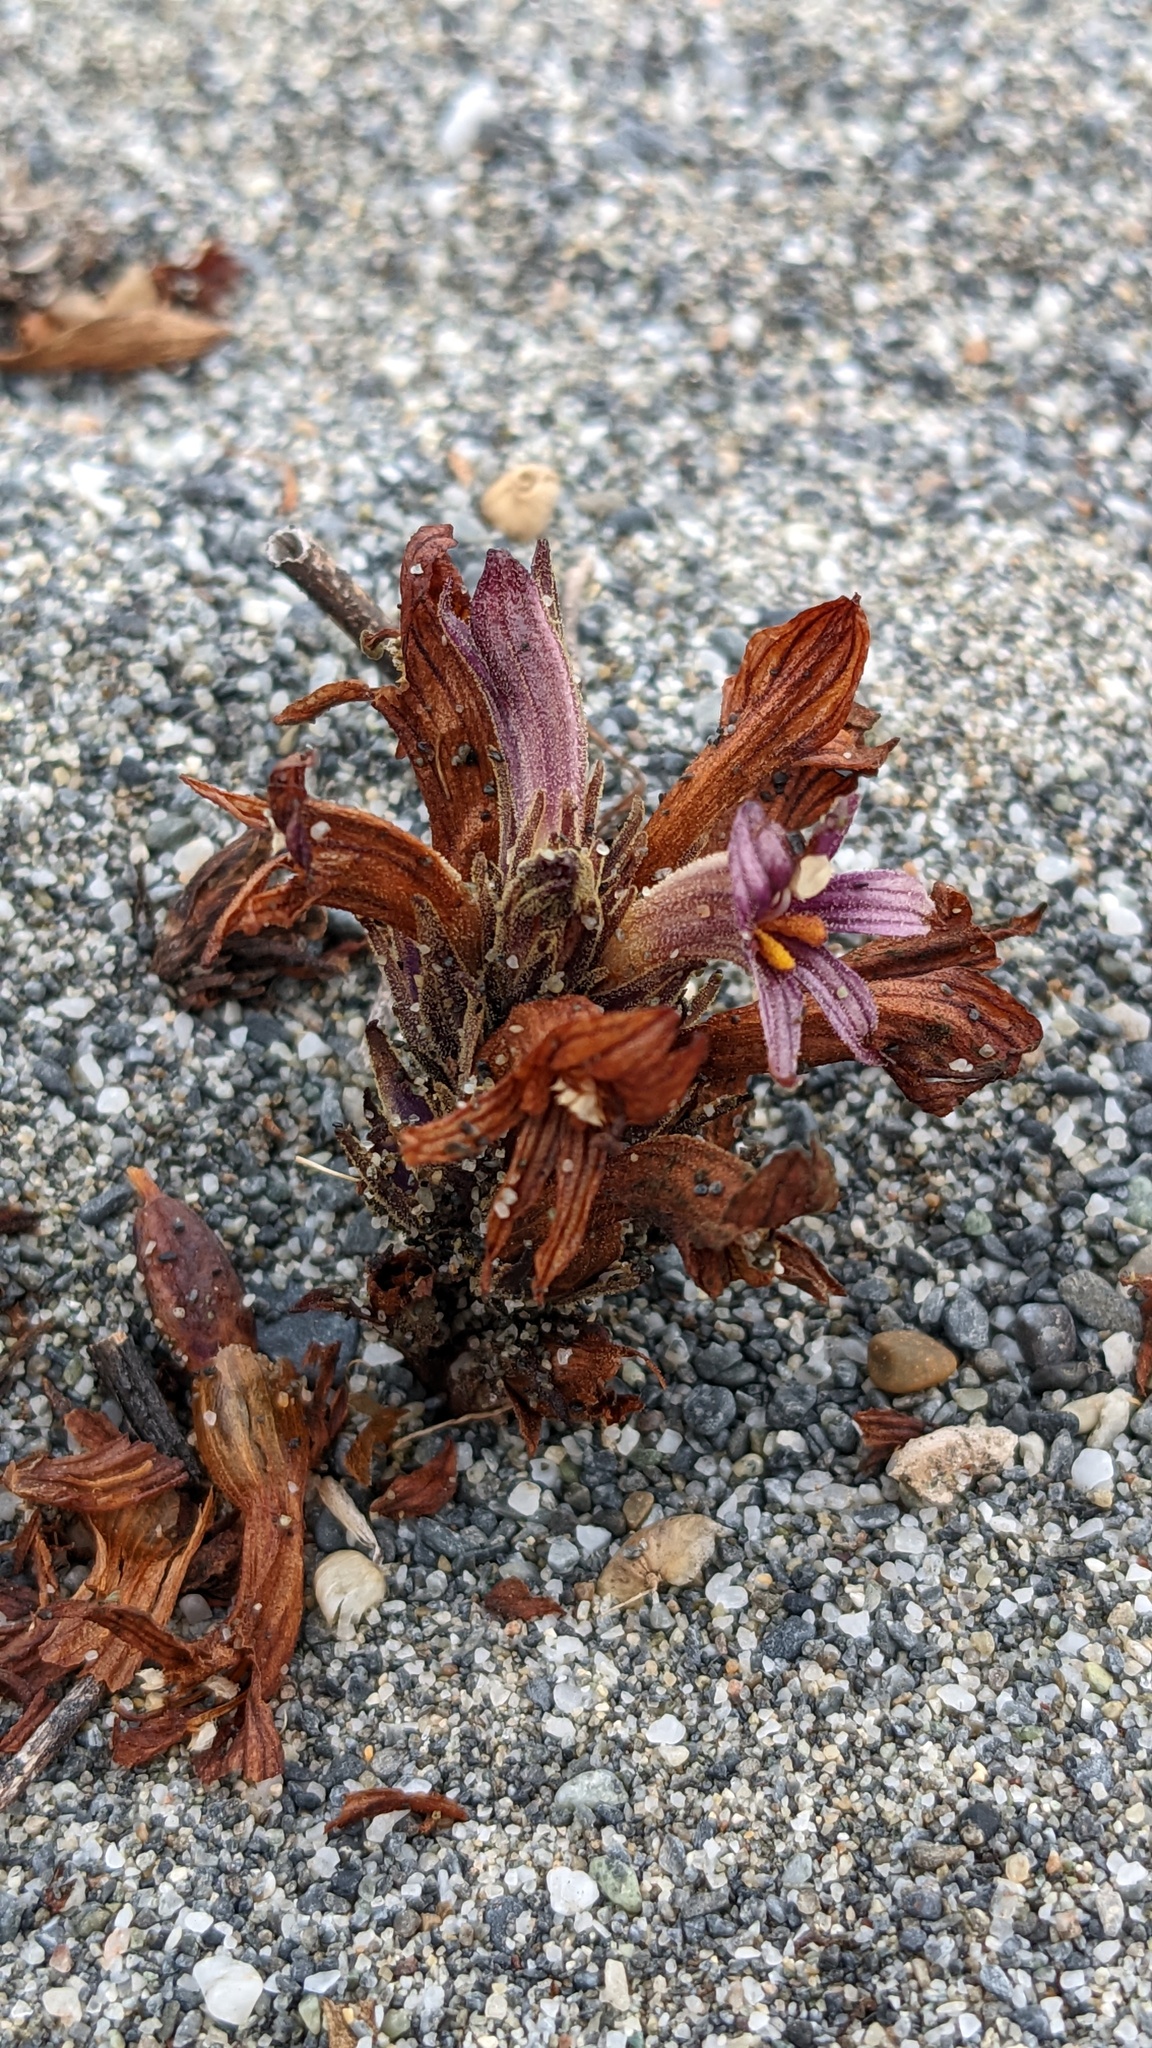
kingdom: Plantae
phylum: Tracheophyta
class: Magnoliopsida
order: Lamiales
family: Orobanchaceae
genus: Aphyllon
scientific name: Aphyllon californicum
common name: California broomrape
